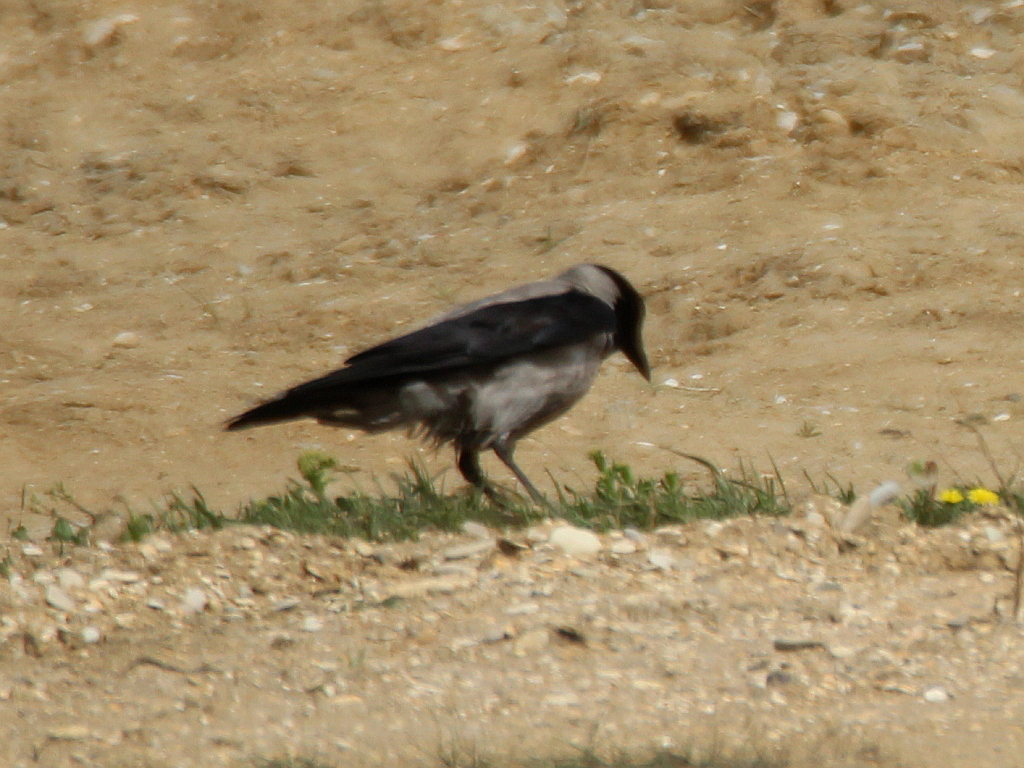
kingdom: Animalia
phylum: Chordata
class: Aves
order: Passeriformes
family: Corvidae
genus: Corvus
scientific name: Corvus cornix
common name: Hooded crow
